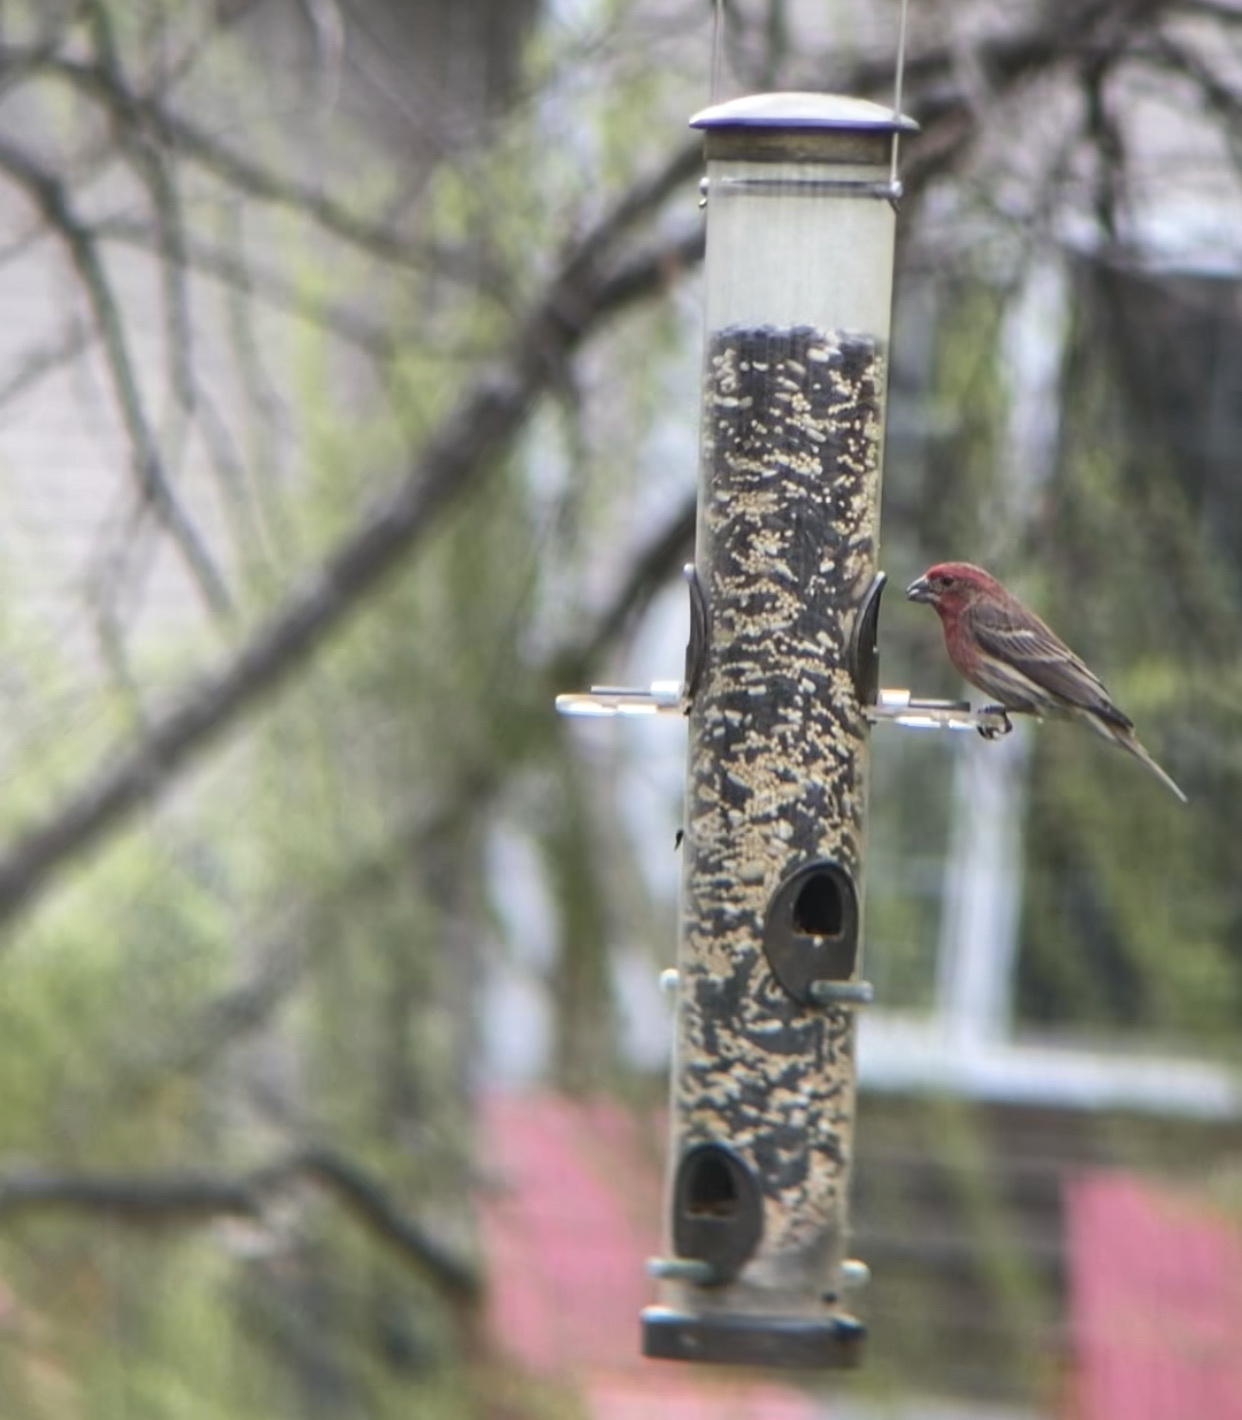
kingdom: Animalia
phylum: Chordata
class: Aves
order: Passeriformes
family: Fringillidae
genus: Haemorhous
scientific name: Haemorhous mexicanus
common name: House finch
